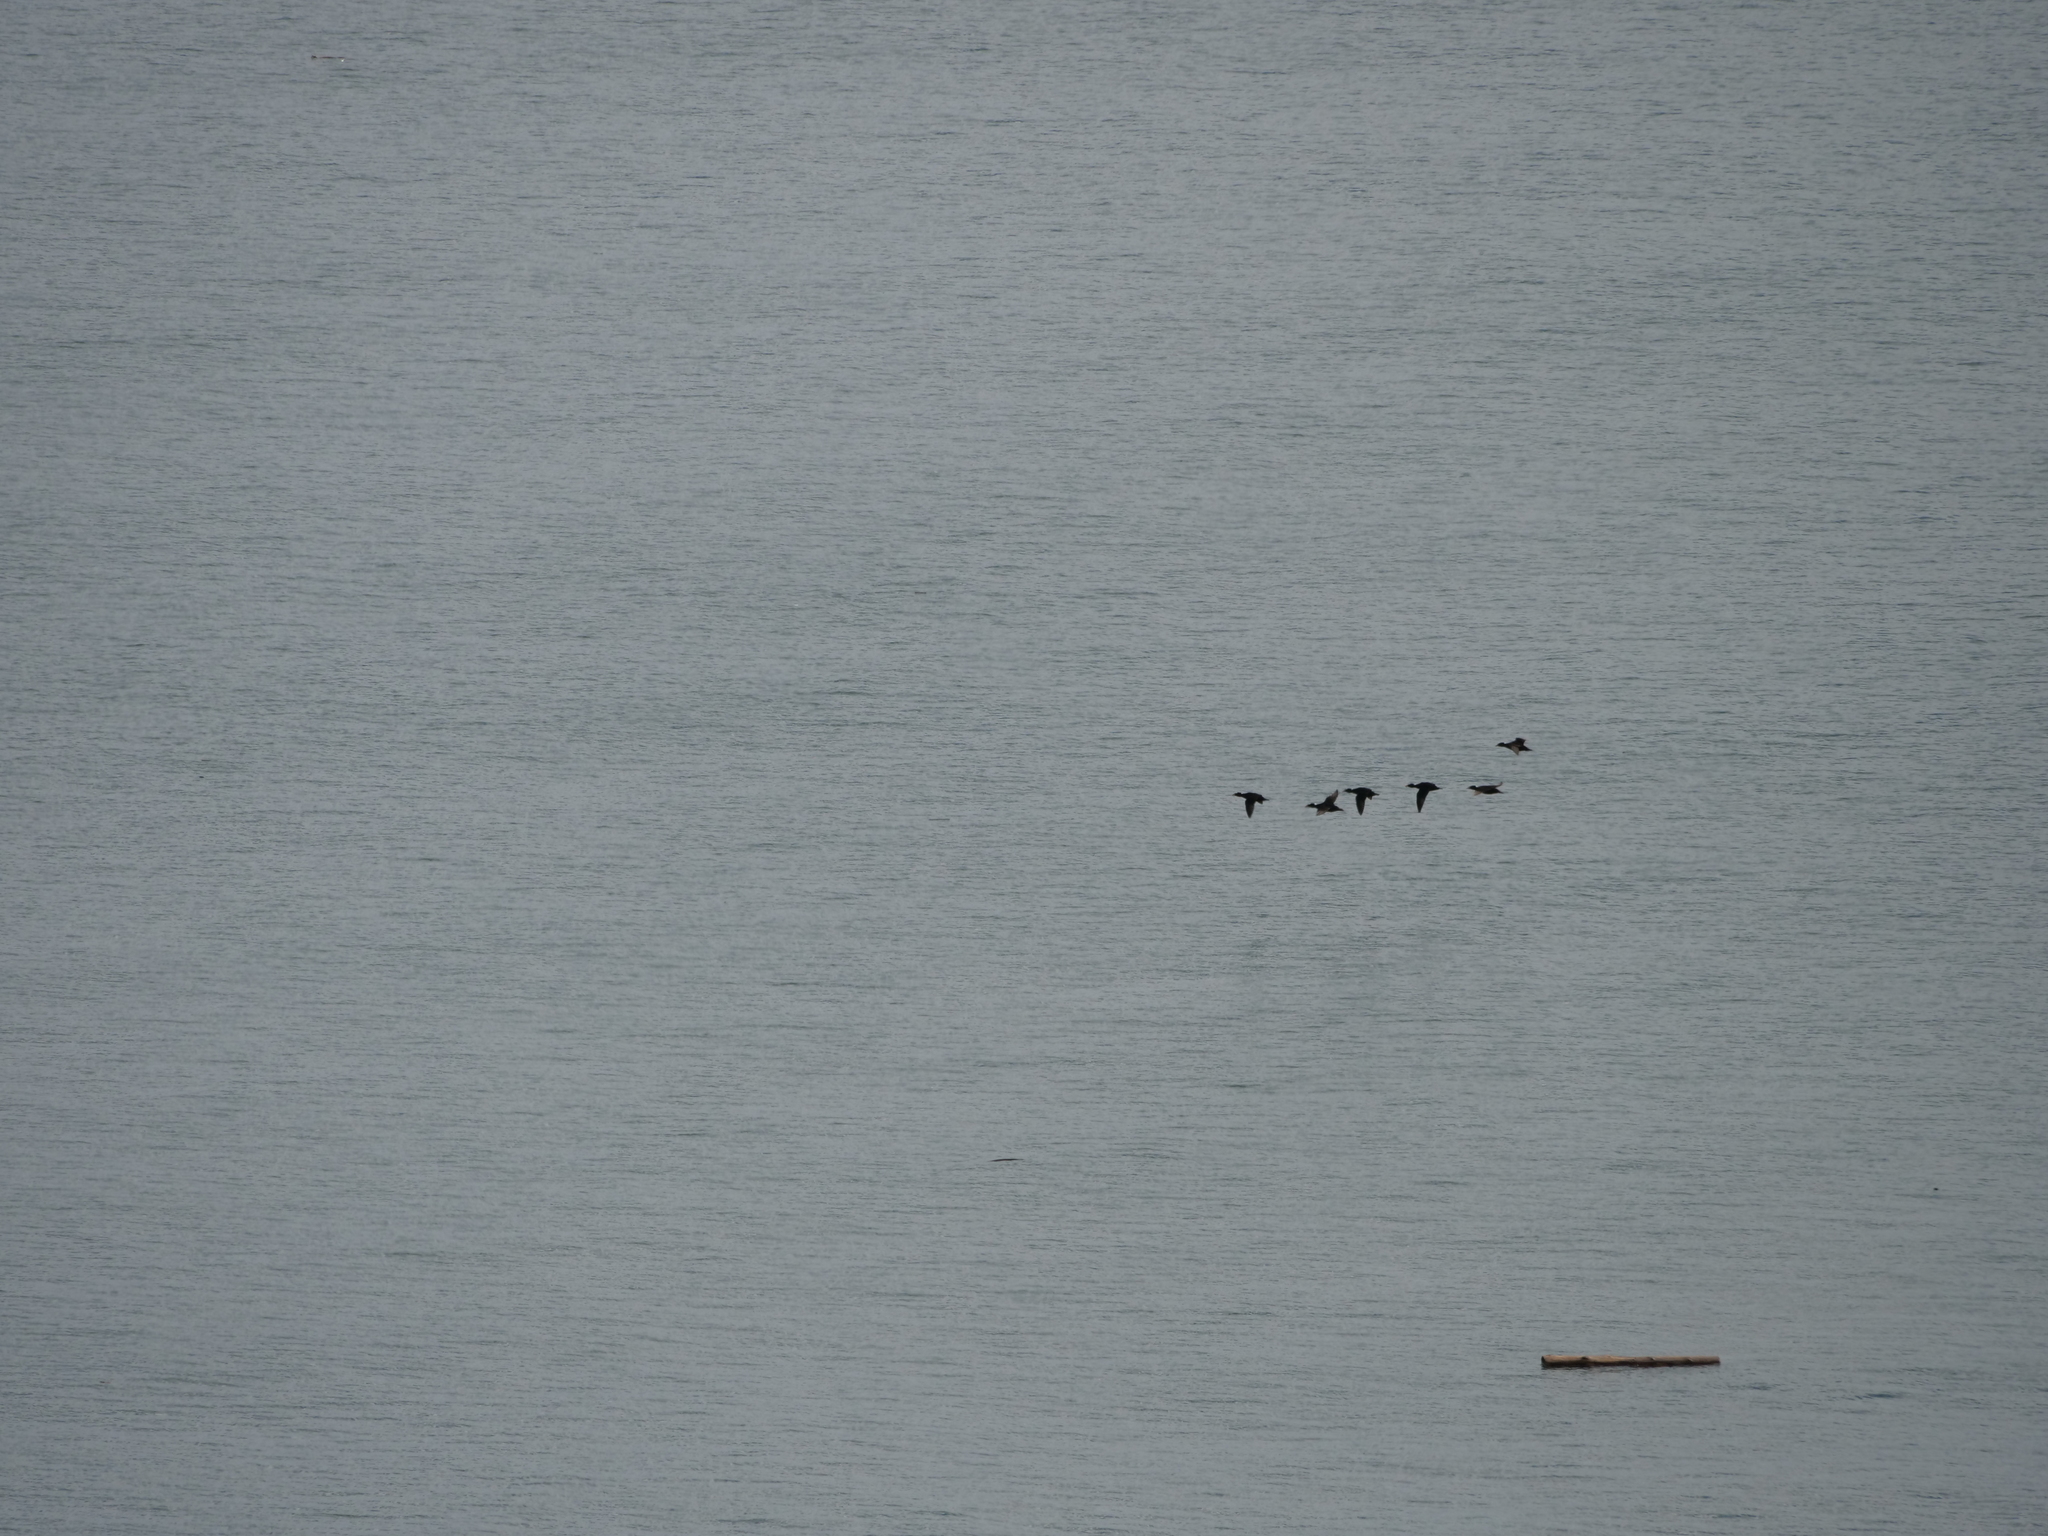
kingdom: Animalia
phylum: Chordata
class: Aves
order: Anseriformes
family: Anatidae
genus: Melanitta
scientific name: Melanitta perspicillata
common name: Surf scoter
